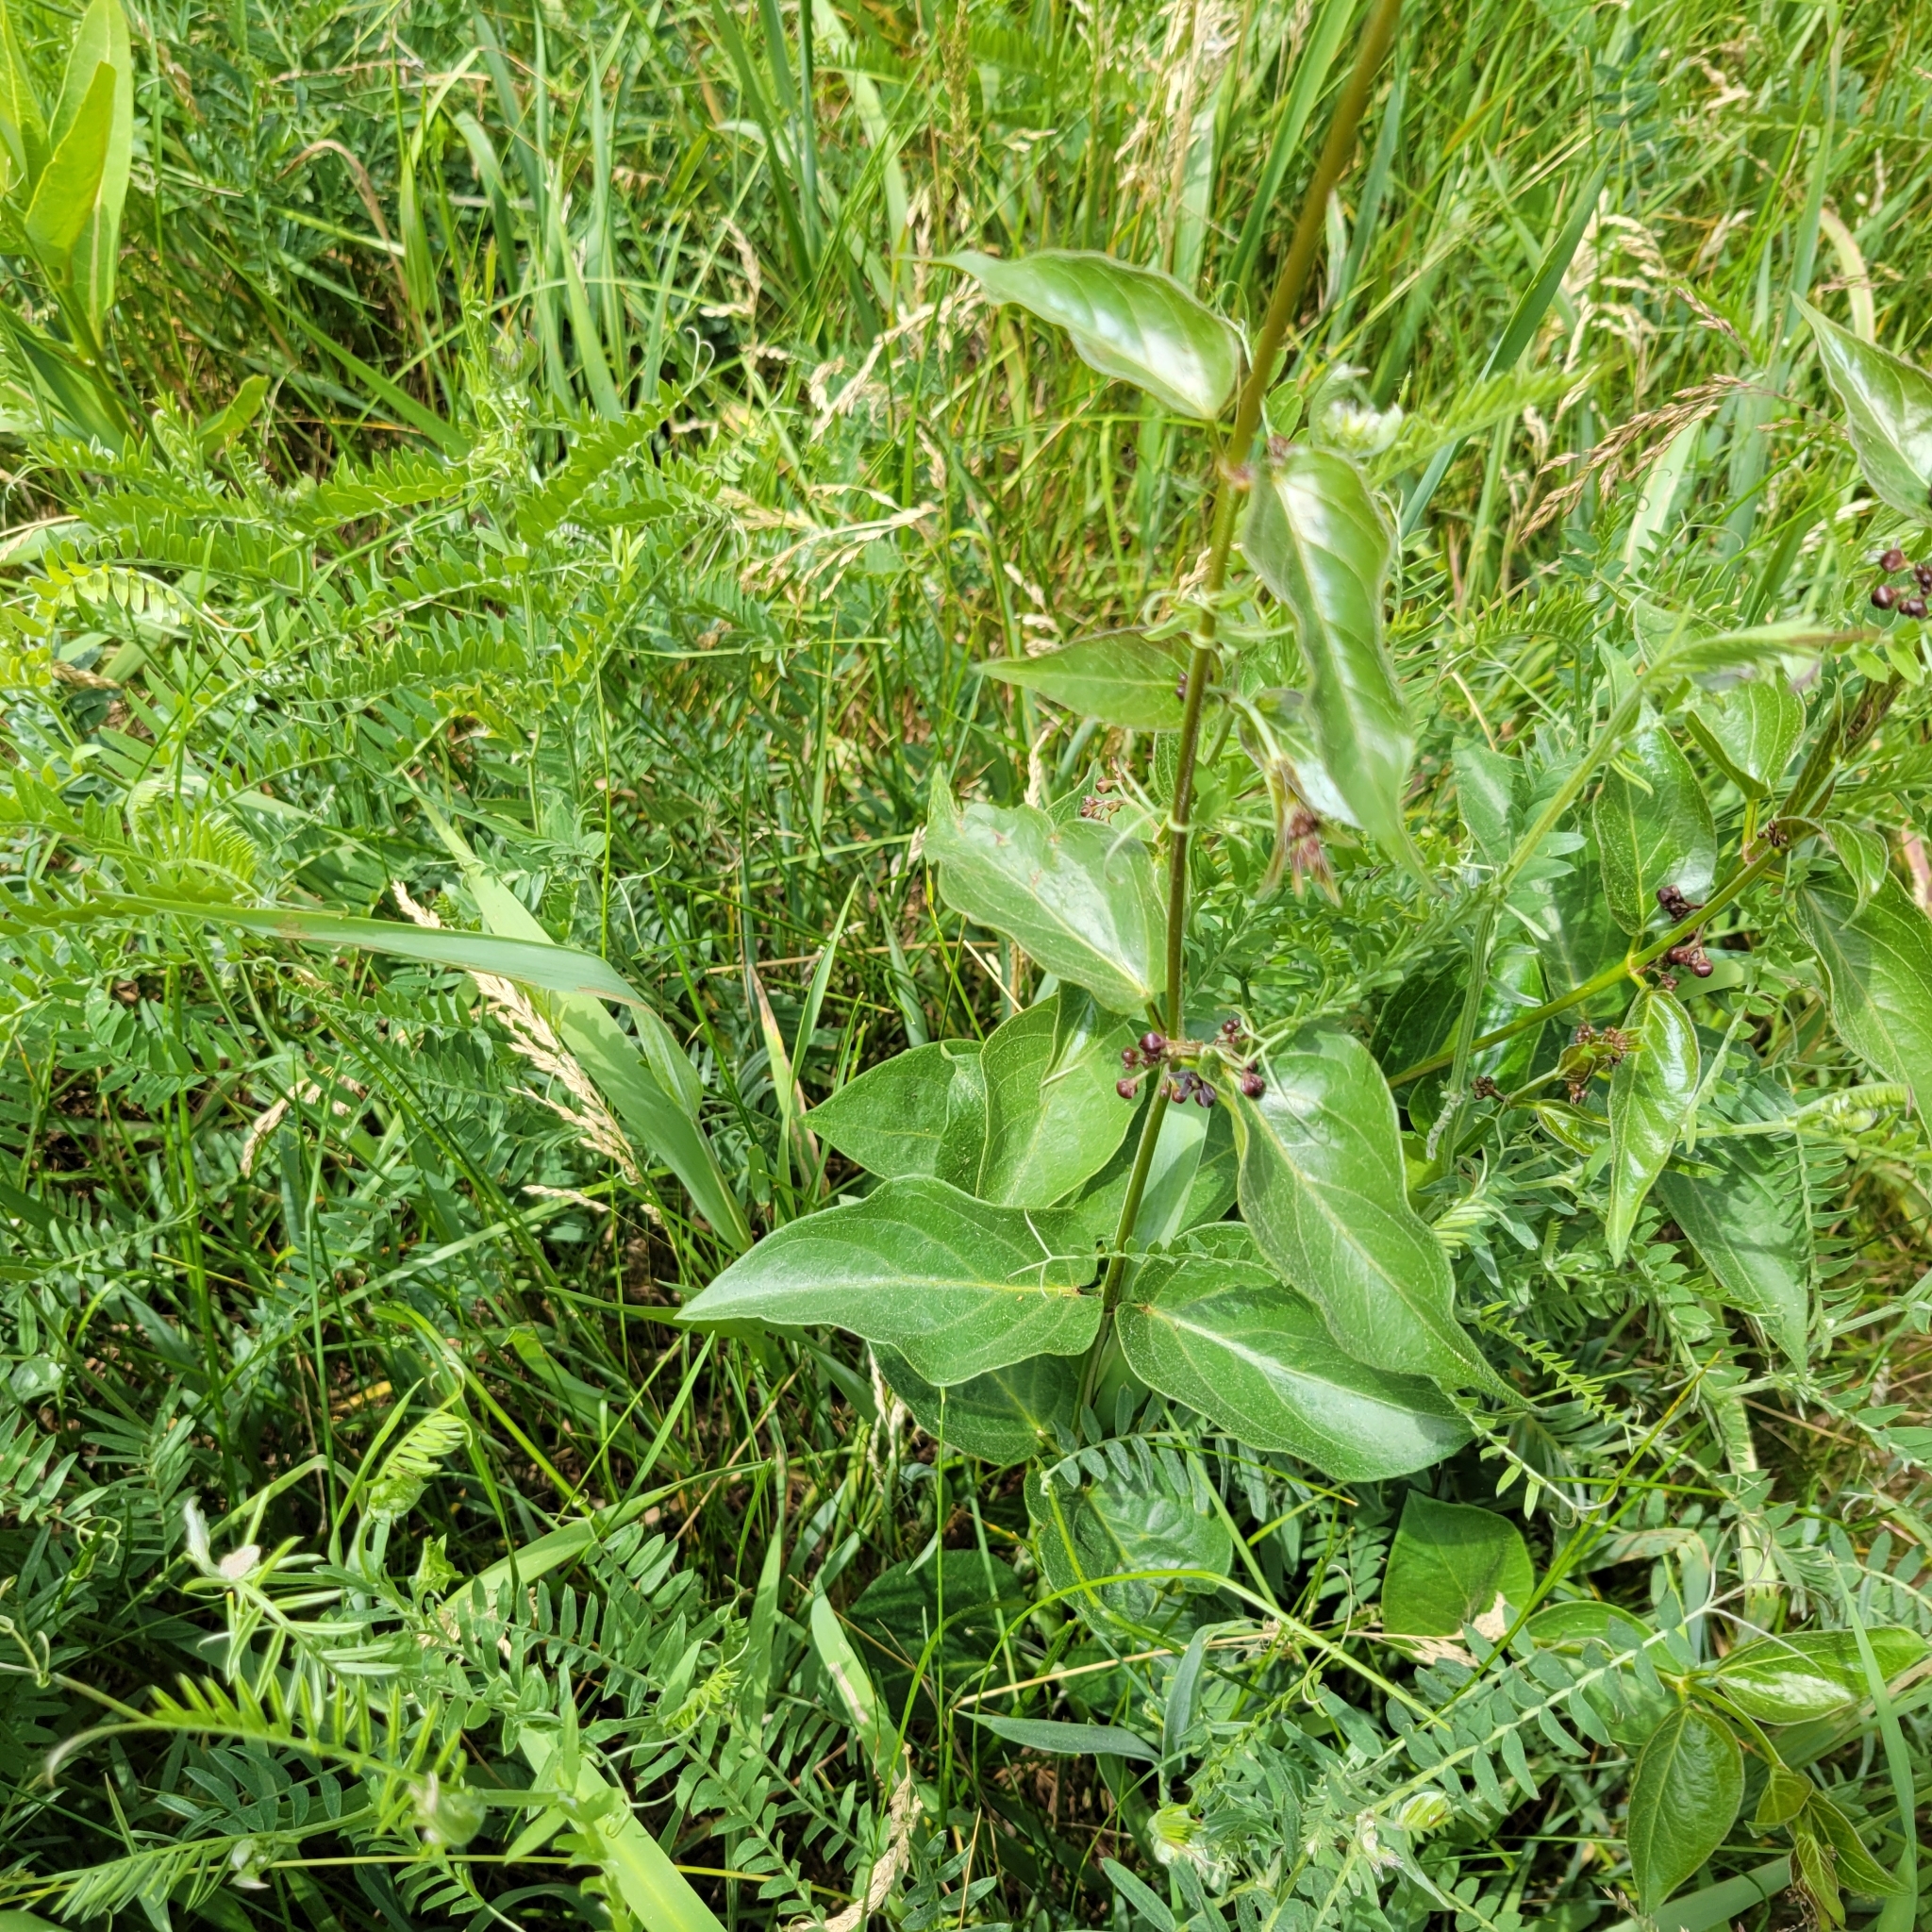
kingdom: Plantae
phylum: Tracheophyta
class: Magnoliopsida
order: Gentianales
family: Apocynaceae
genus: Vincetoxicum
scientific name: Vincetoxicum nigrum
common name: Black swallow-wort
